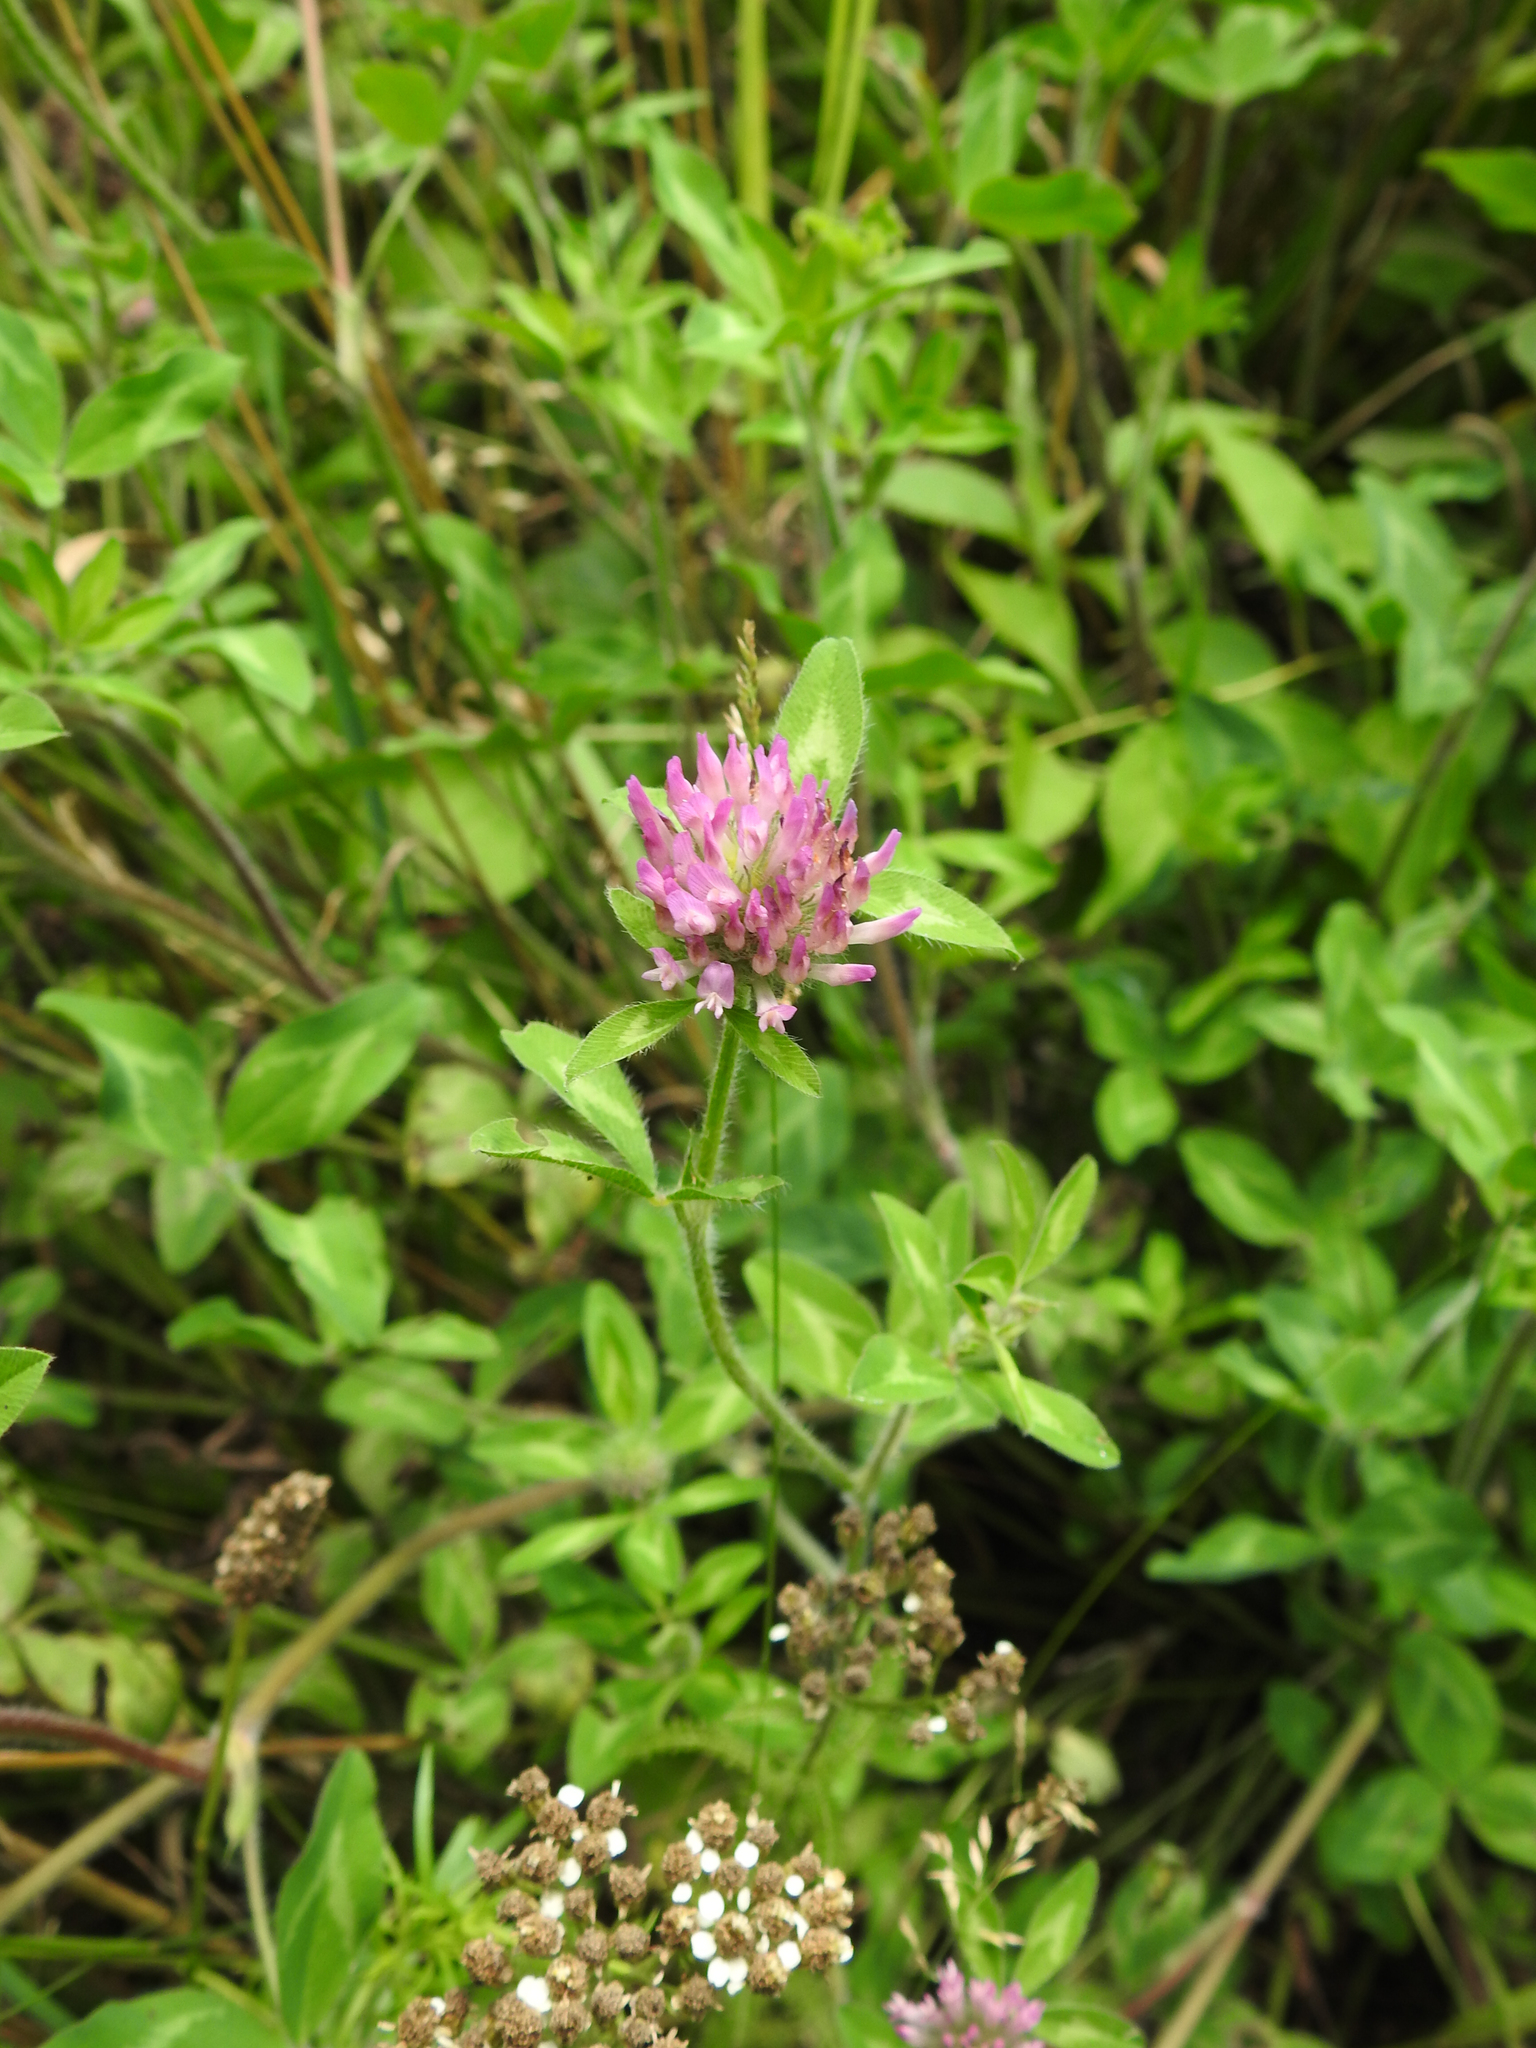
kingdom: Plantae
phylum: Tracheophyta
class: Magnoliopsida
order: Fabales
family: Fabaceae
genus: Trifolium
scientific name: Trifolium pratense
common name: Red clover
